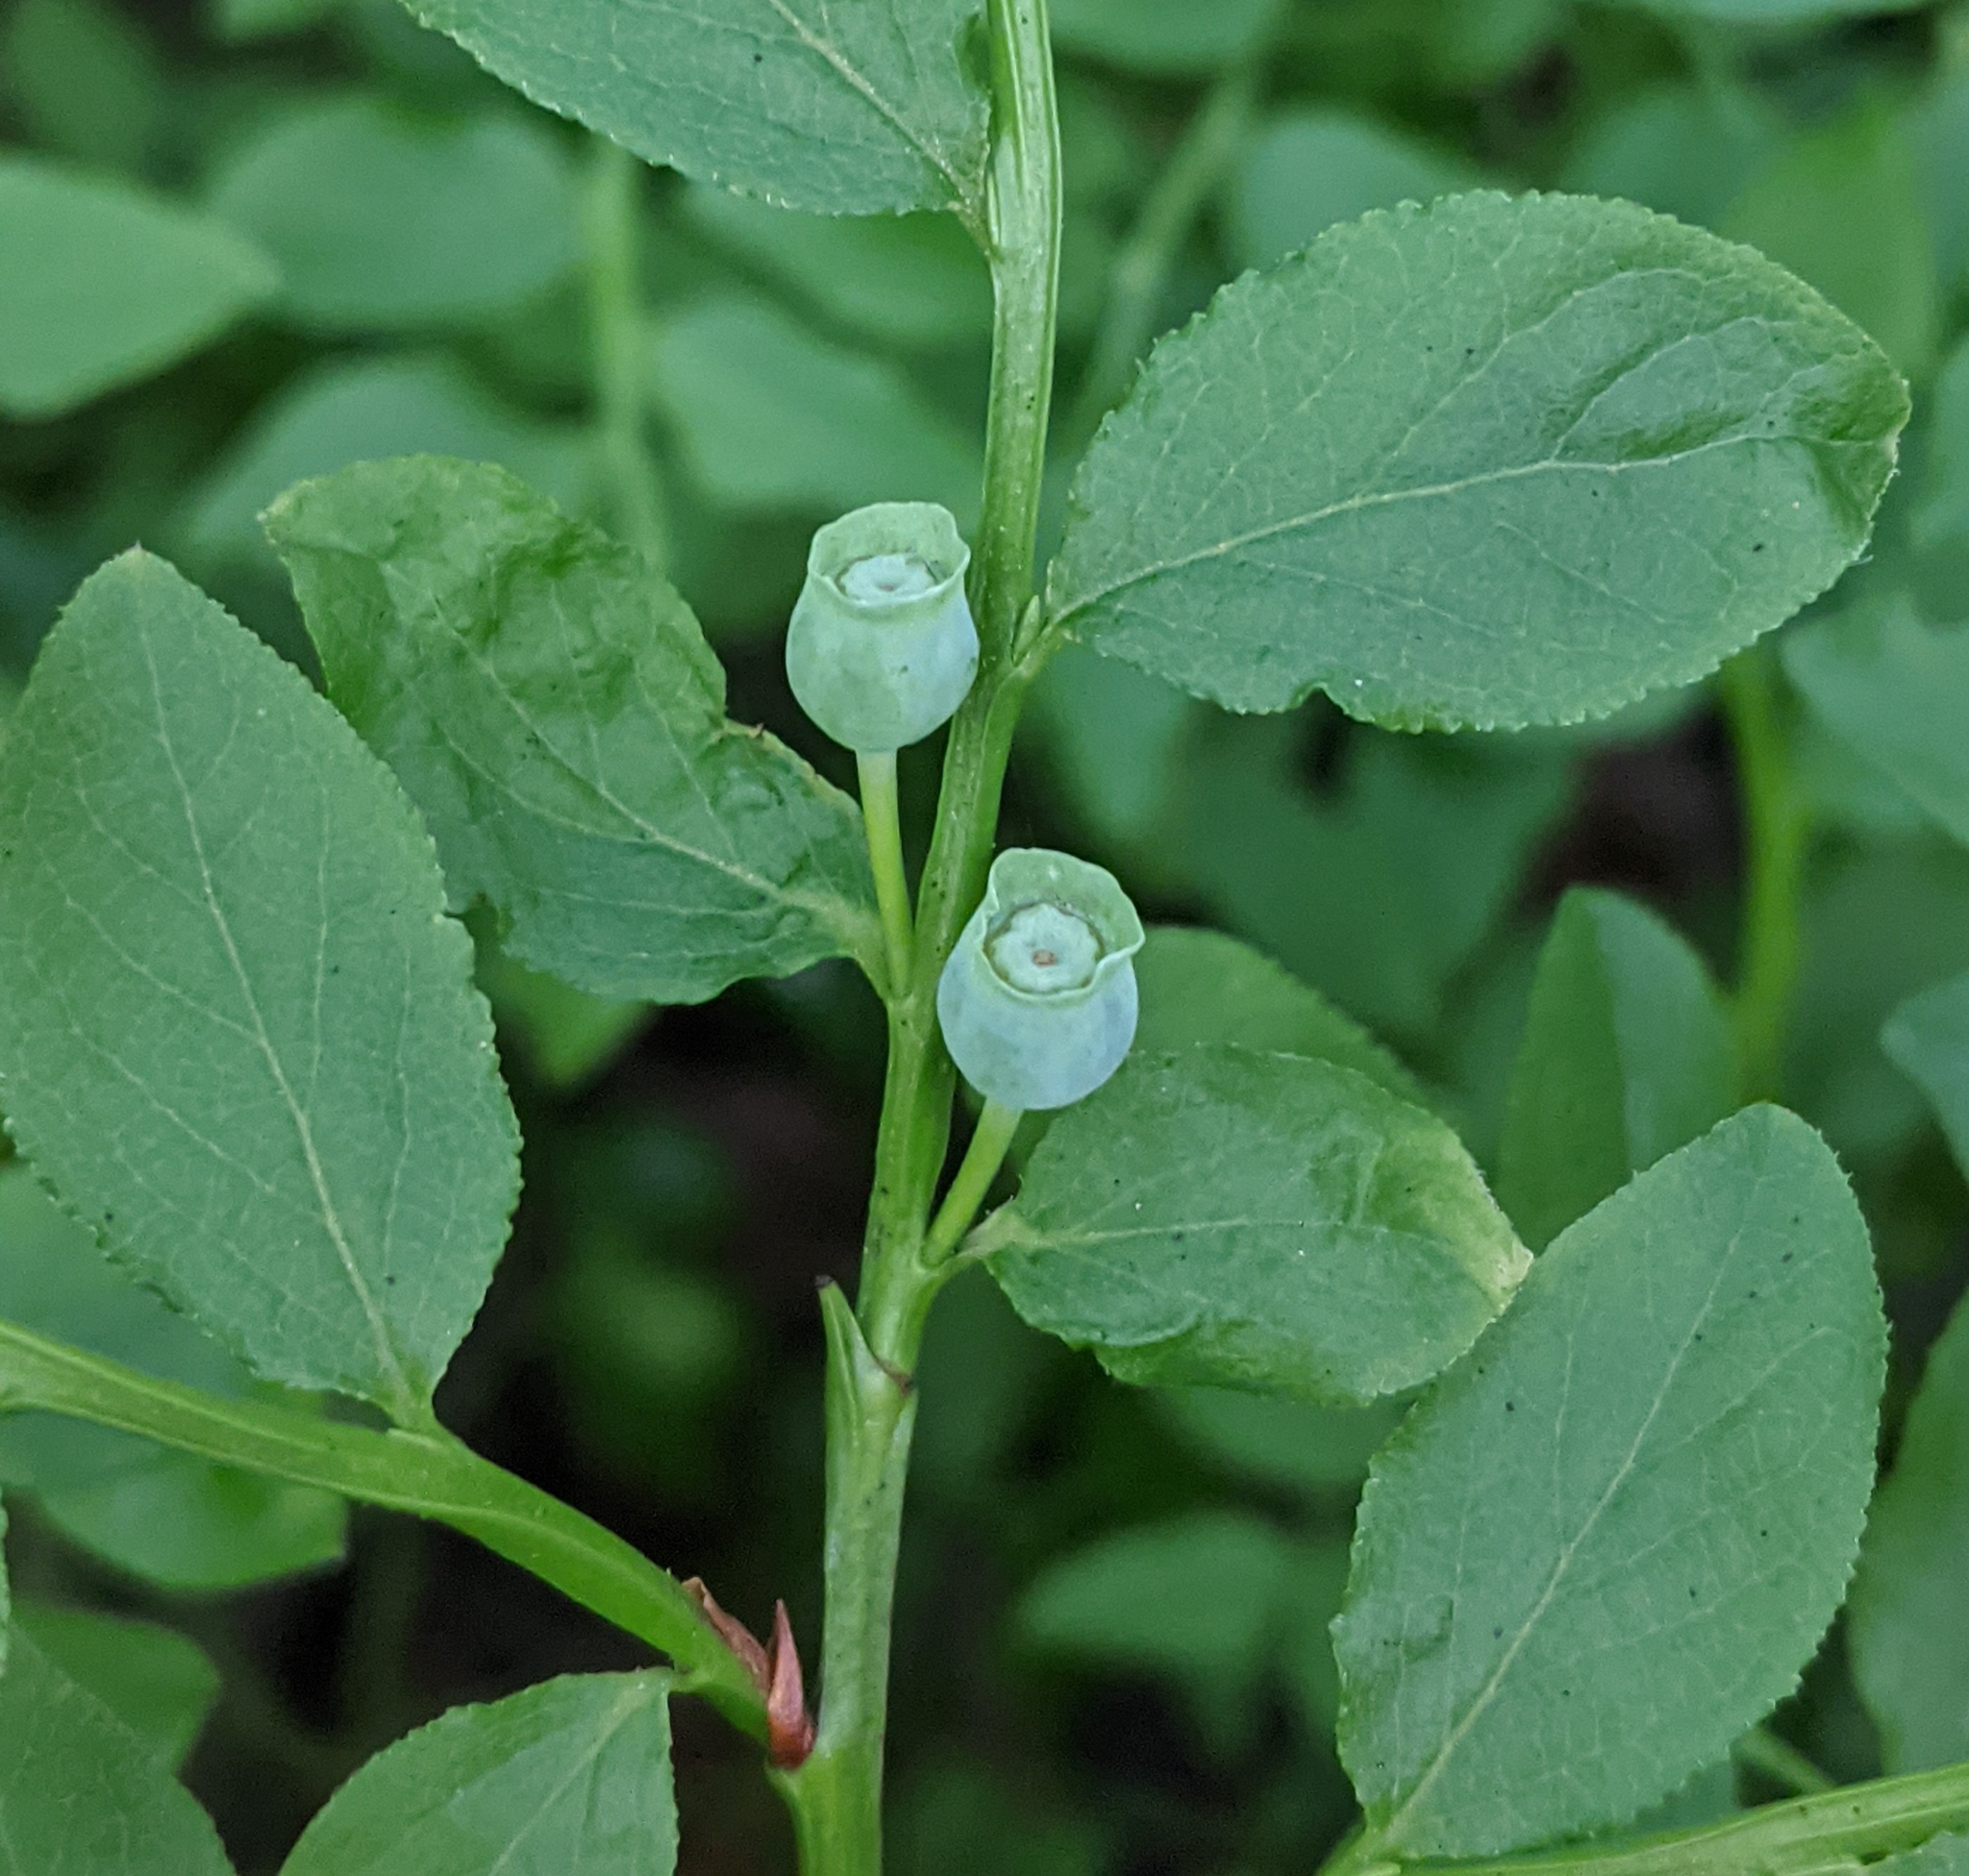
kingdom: Plantae
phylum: Tracheophyta
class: Magnoliopsida
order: Ericales
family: Ericaceae
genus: Vaccinium
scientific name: Vaccinium myrtillus
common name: Bilberry
